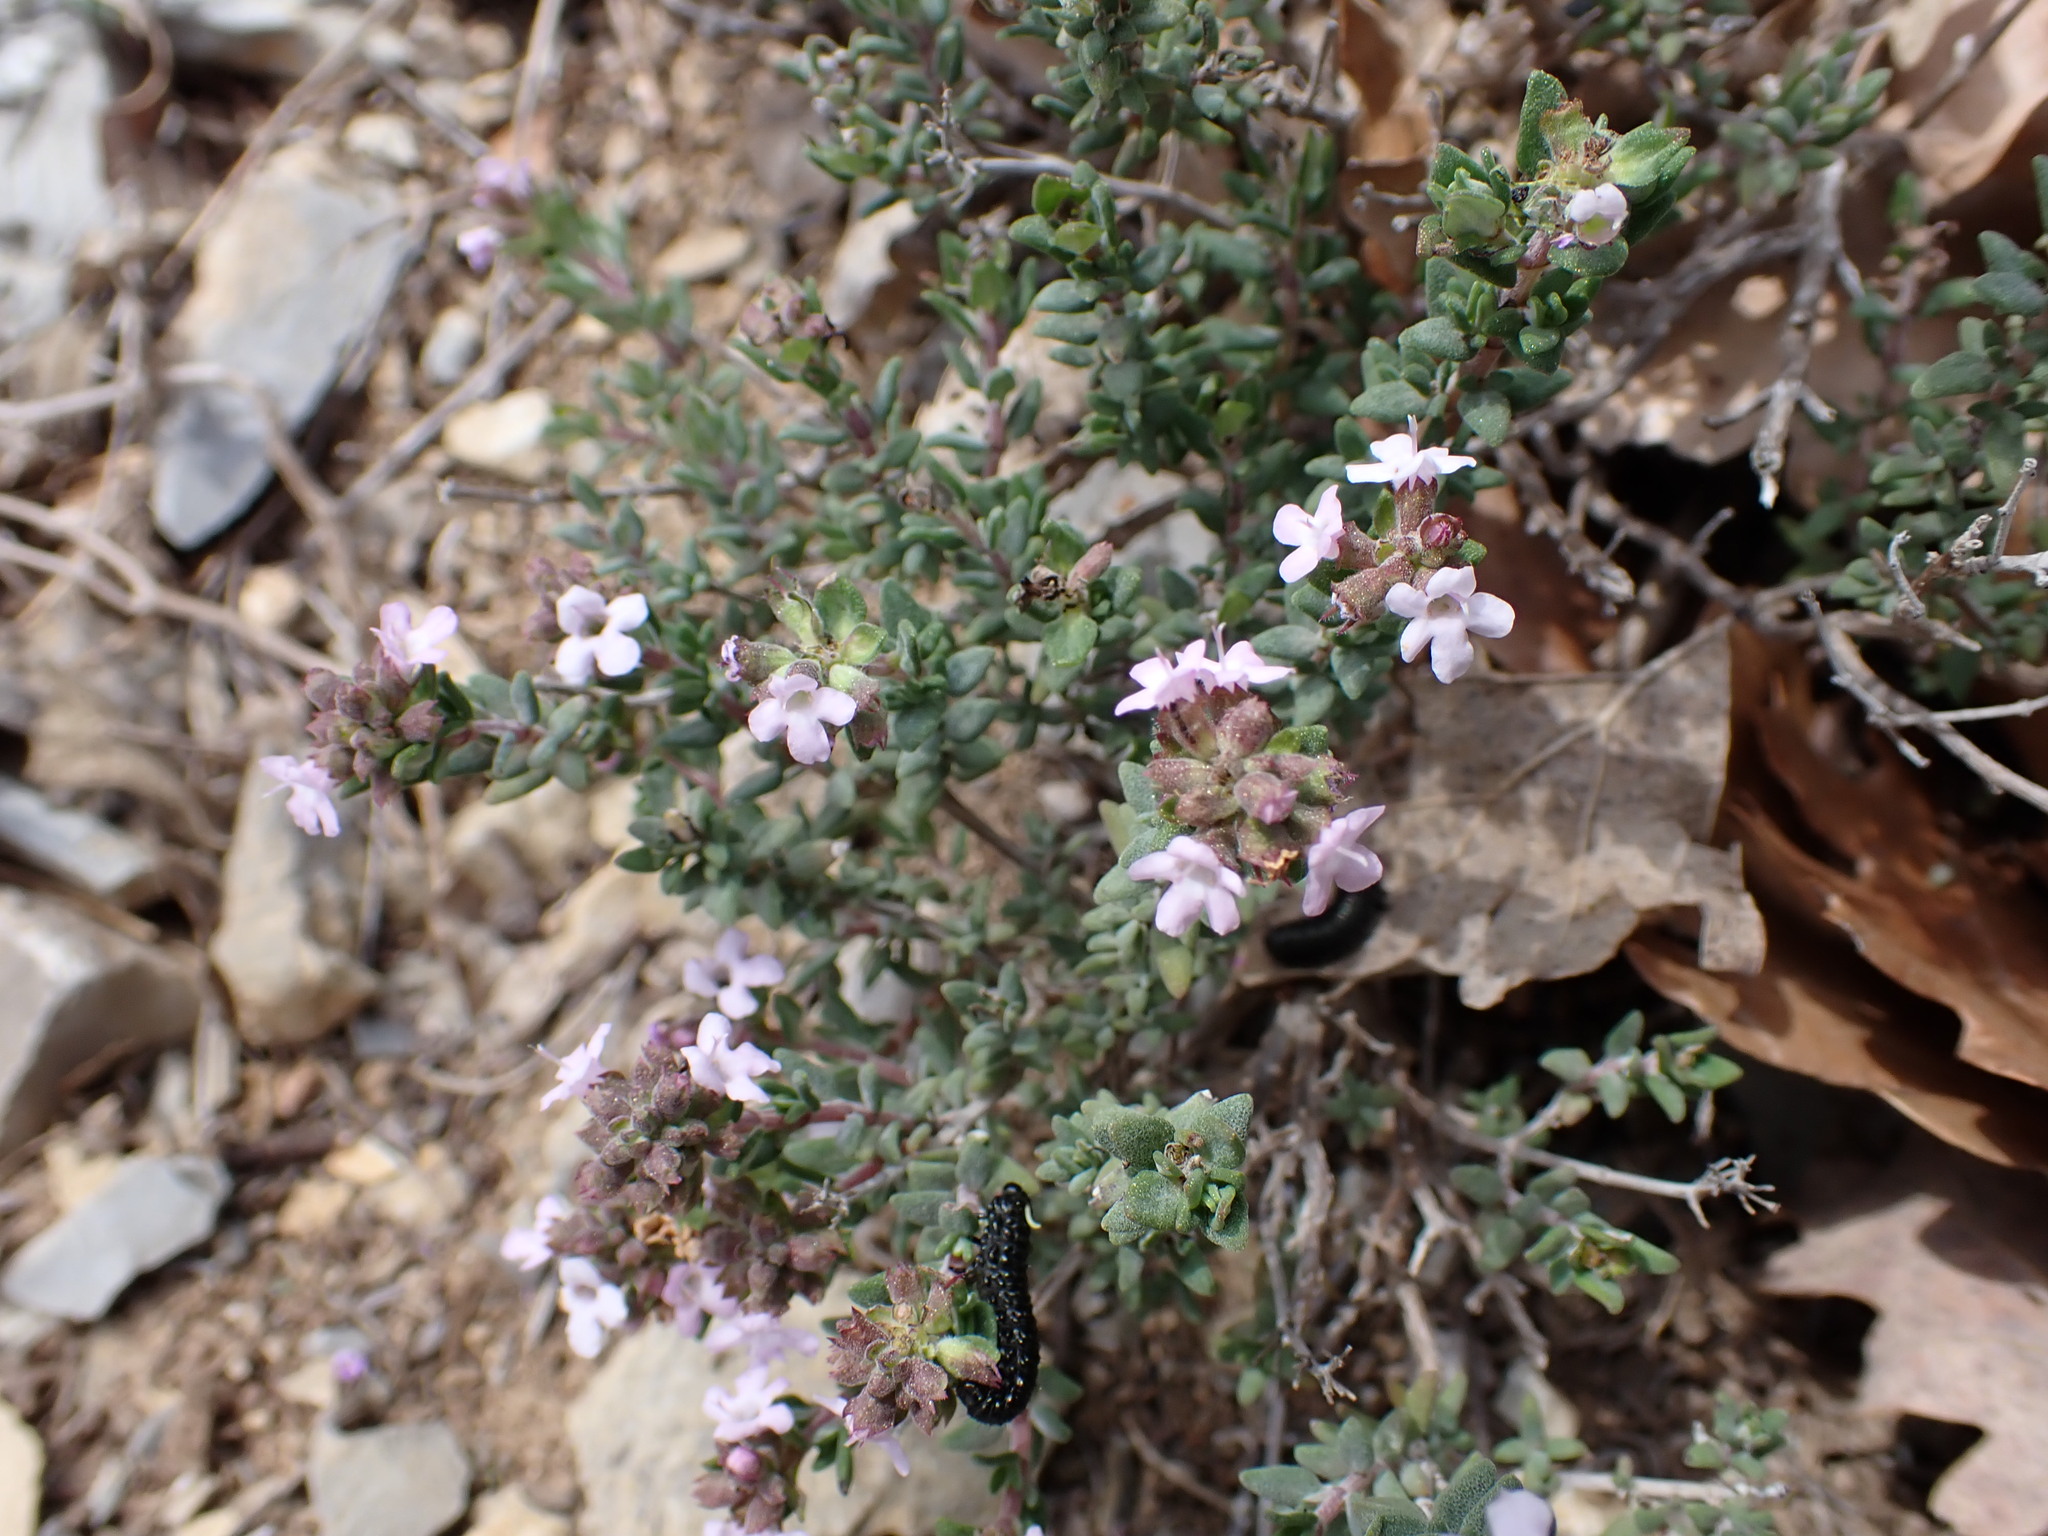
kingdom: Plantae
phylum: Tracheophyta
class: Magnoliopsida
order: Lamiales
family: Lamiaceae
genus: Thymus
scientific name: Thymus vulgaris
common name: Garden thyme
